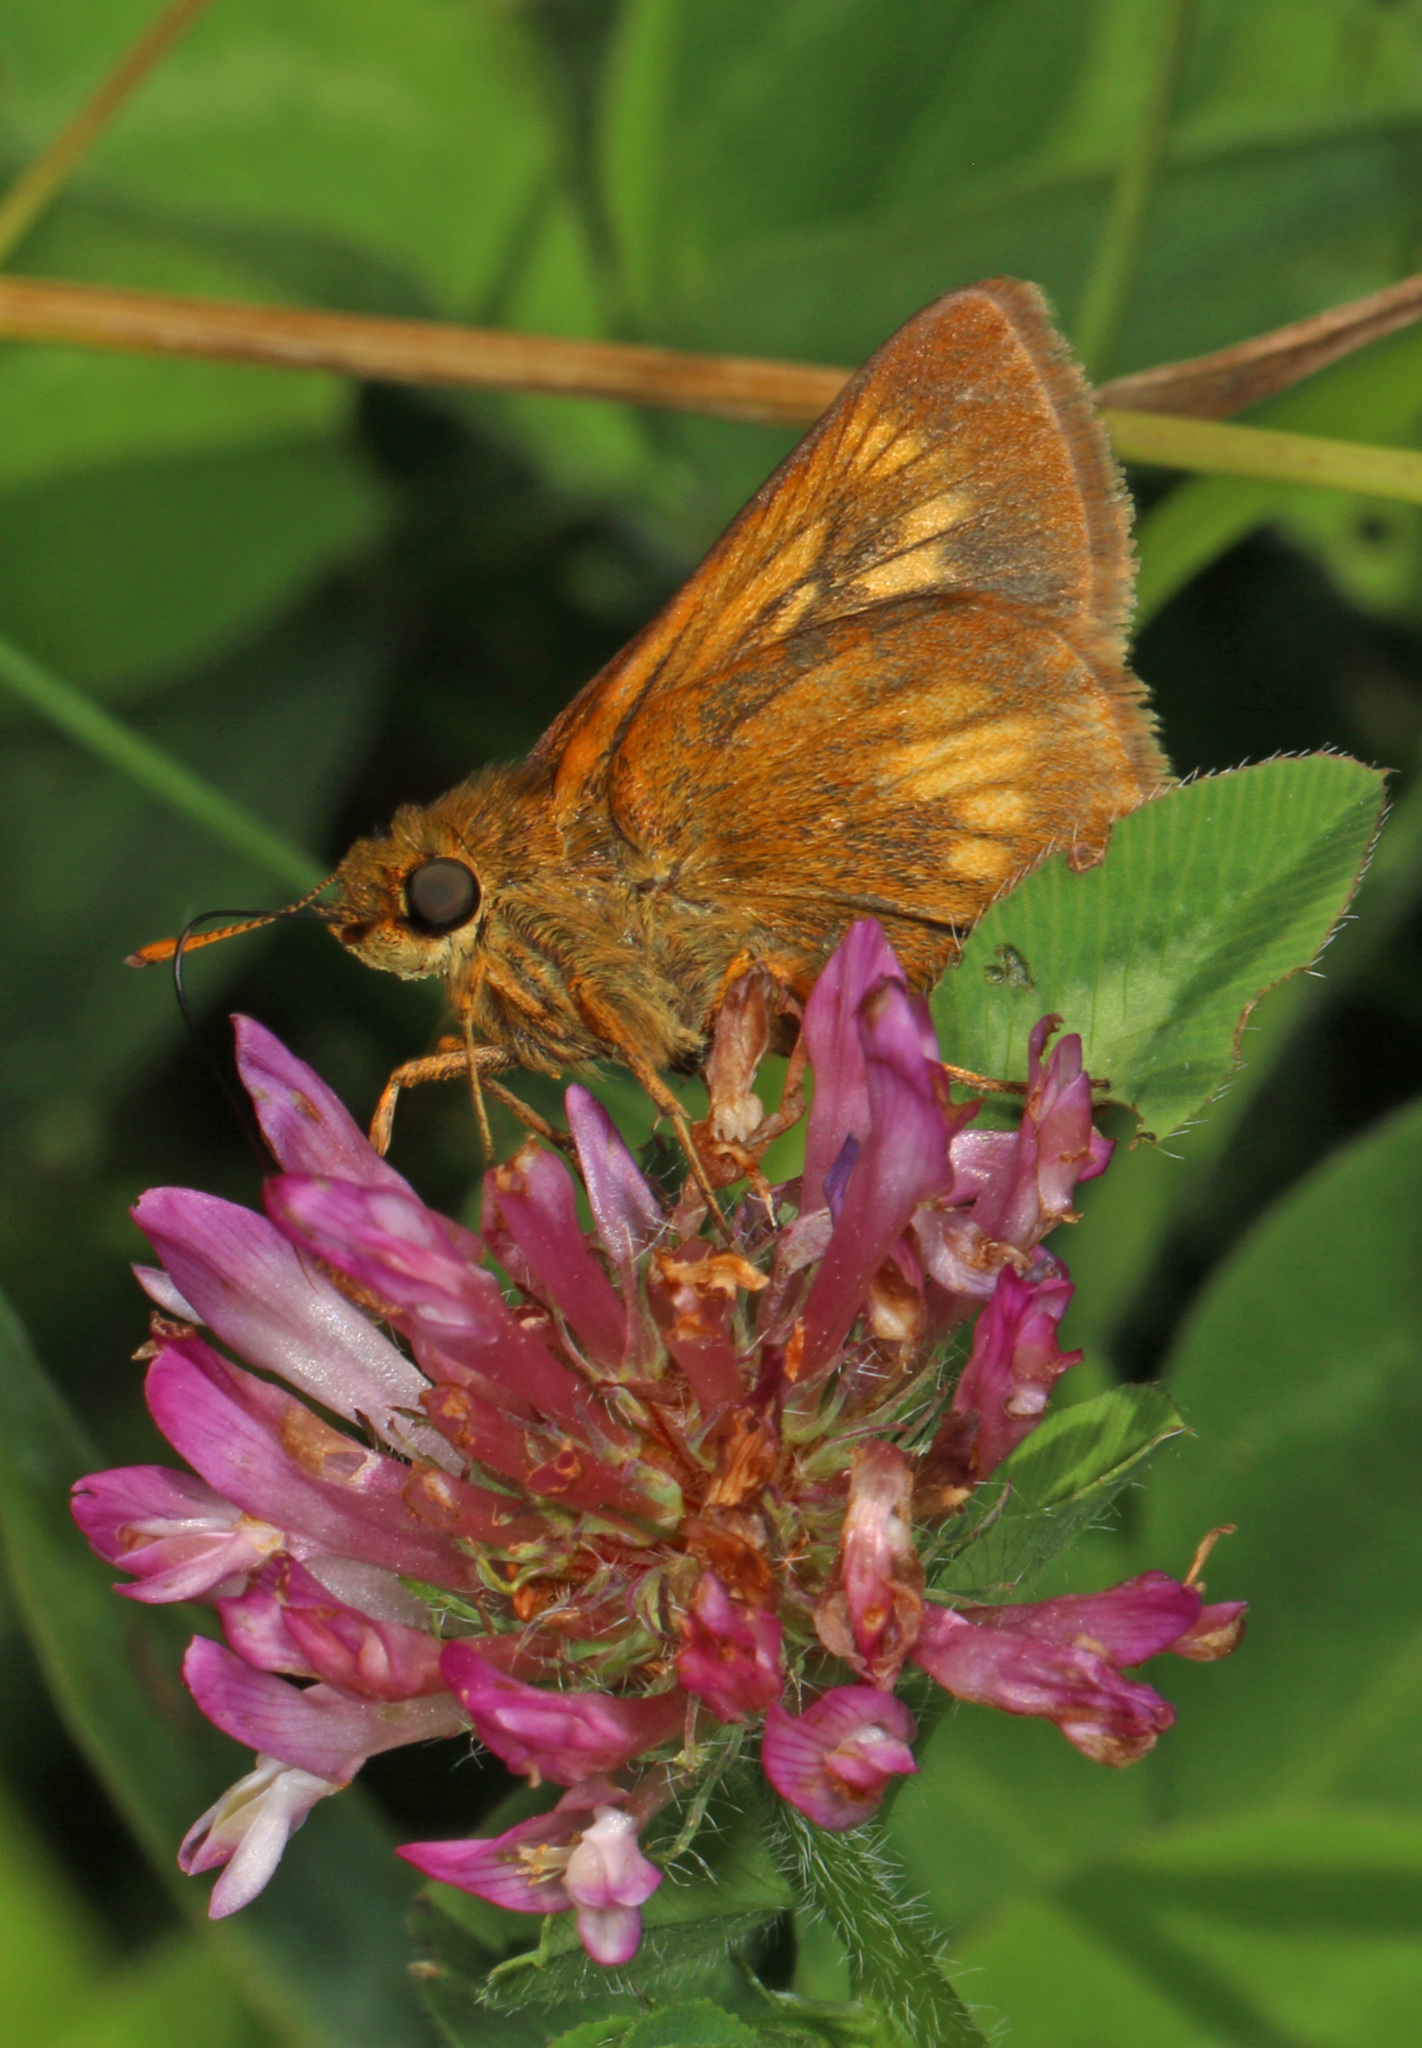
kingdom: Animalia
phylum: Arthropoda
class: Insecta
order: Lepidoptera
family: Hesperiidae
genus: Euphyes
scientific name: Euphyes conspicua
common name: Black dash
